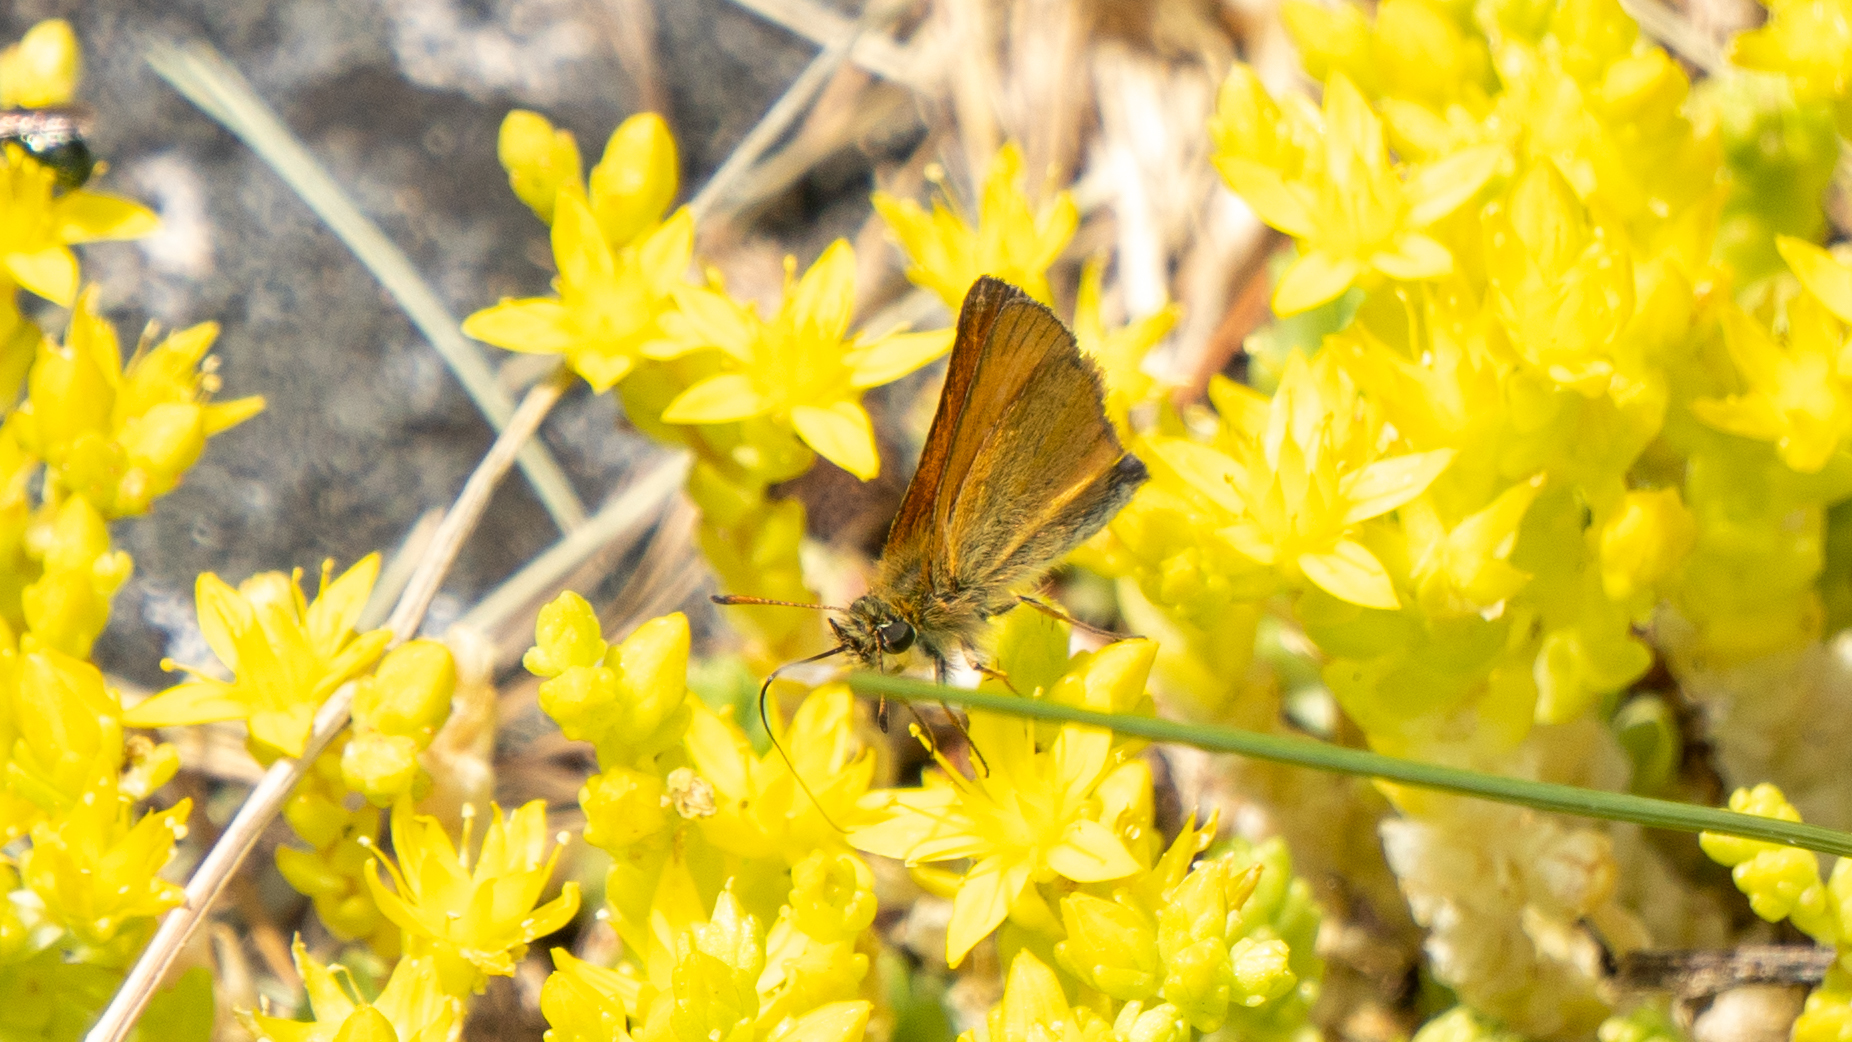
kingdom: Animalia
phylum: Arthropoda
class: Insecta
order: Lepidoptera
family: Hesperiidae
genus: Thymelicus
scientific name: Thymelicus lineola
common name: Essex skipper
